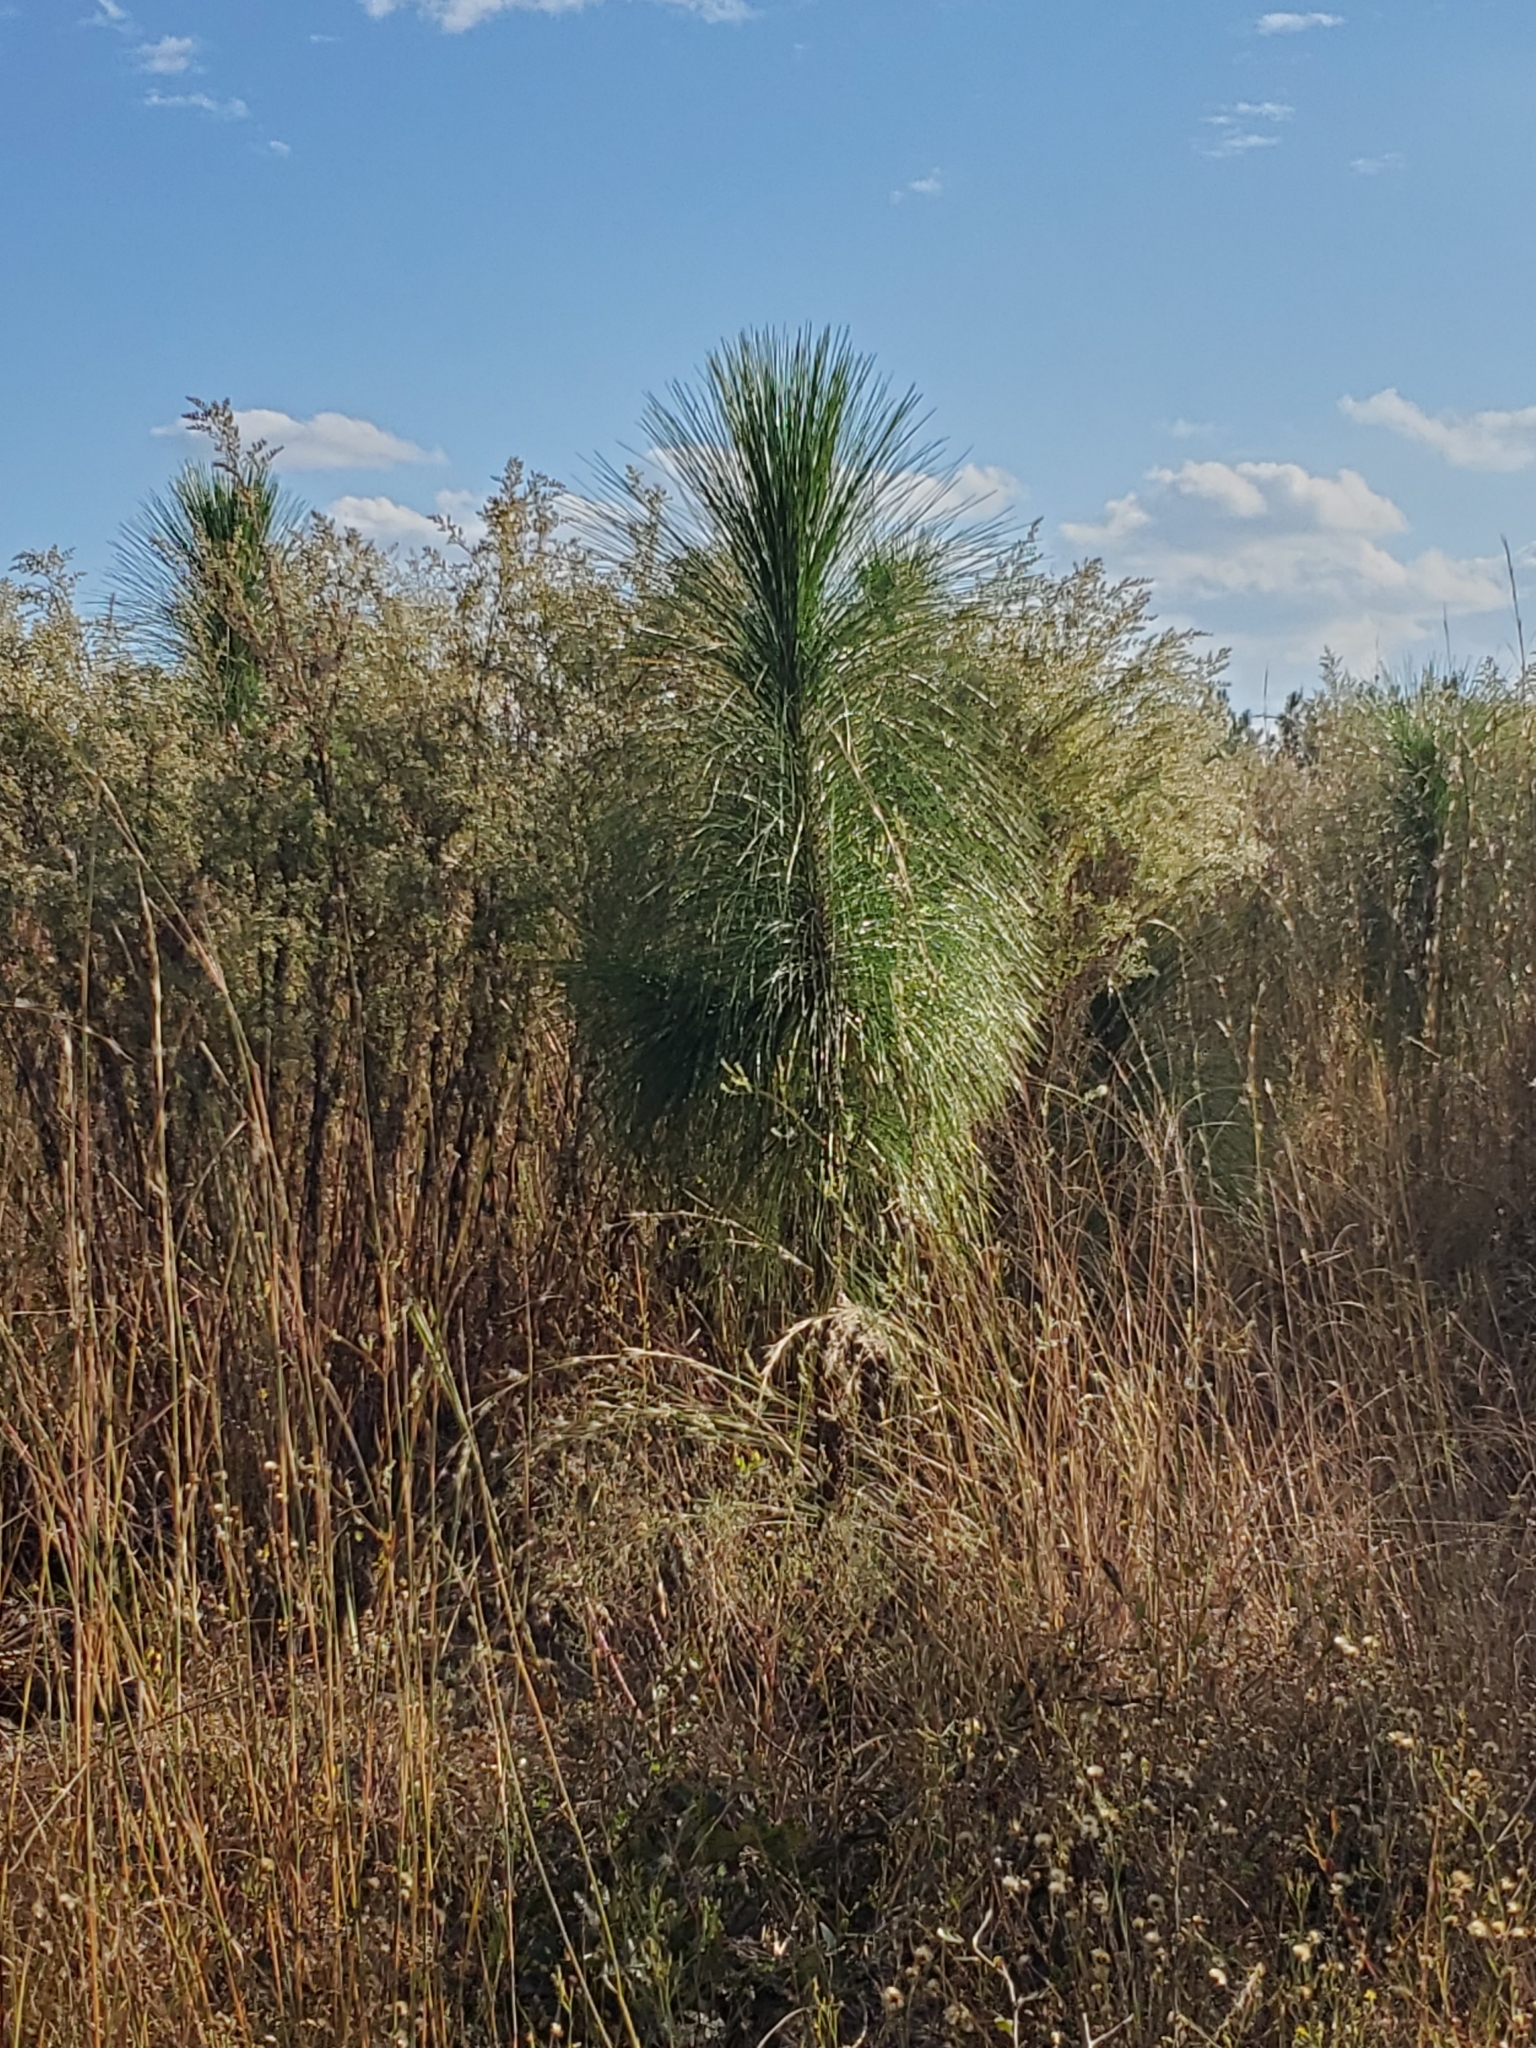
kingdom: Plantae
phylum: Tracheophyta
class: Pinopsida
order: Pinales
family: Pinaceae
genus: Pinus
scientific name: Pinus palustris
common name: Longleaf pine
